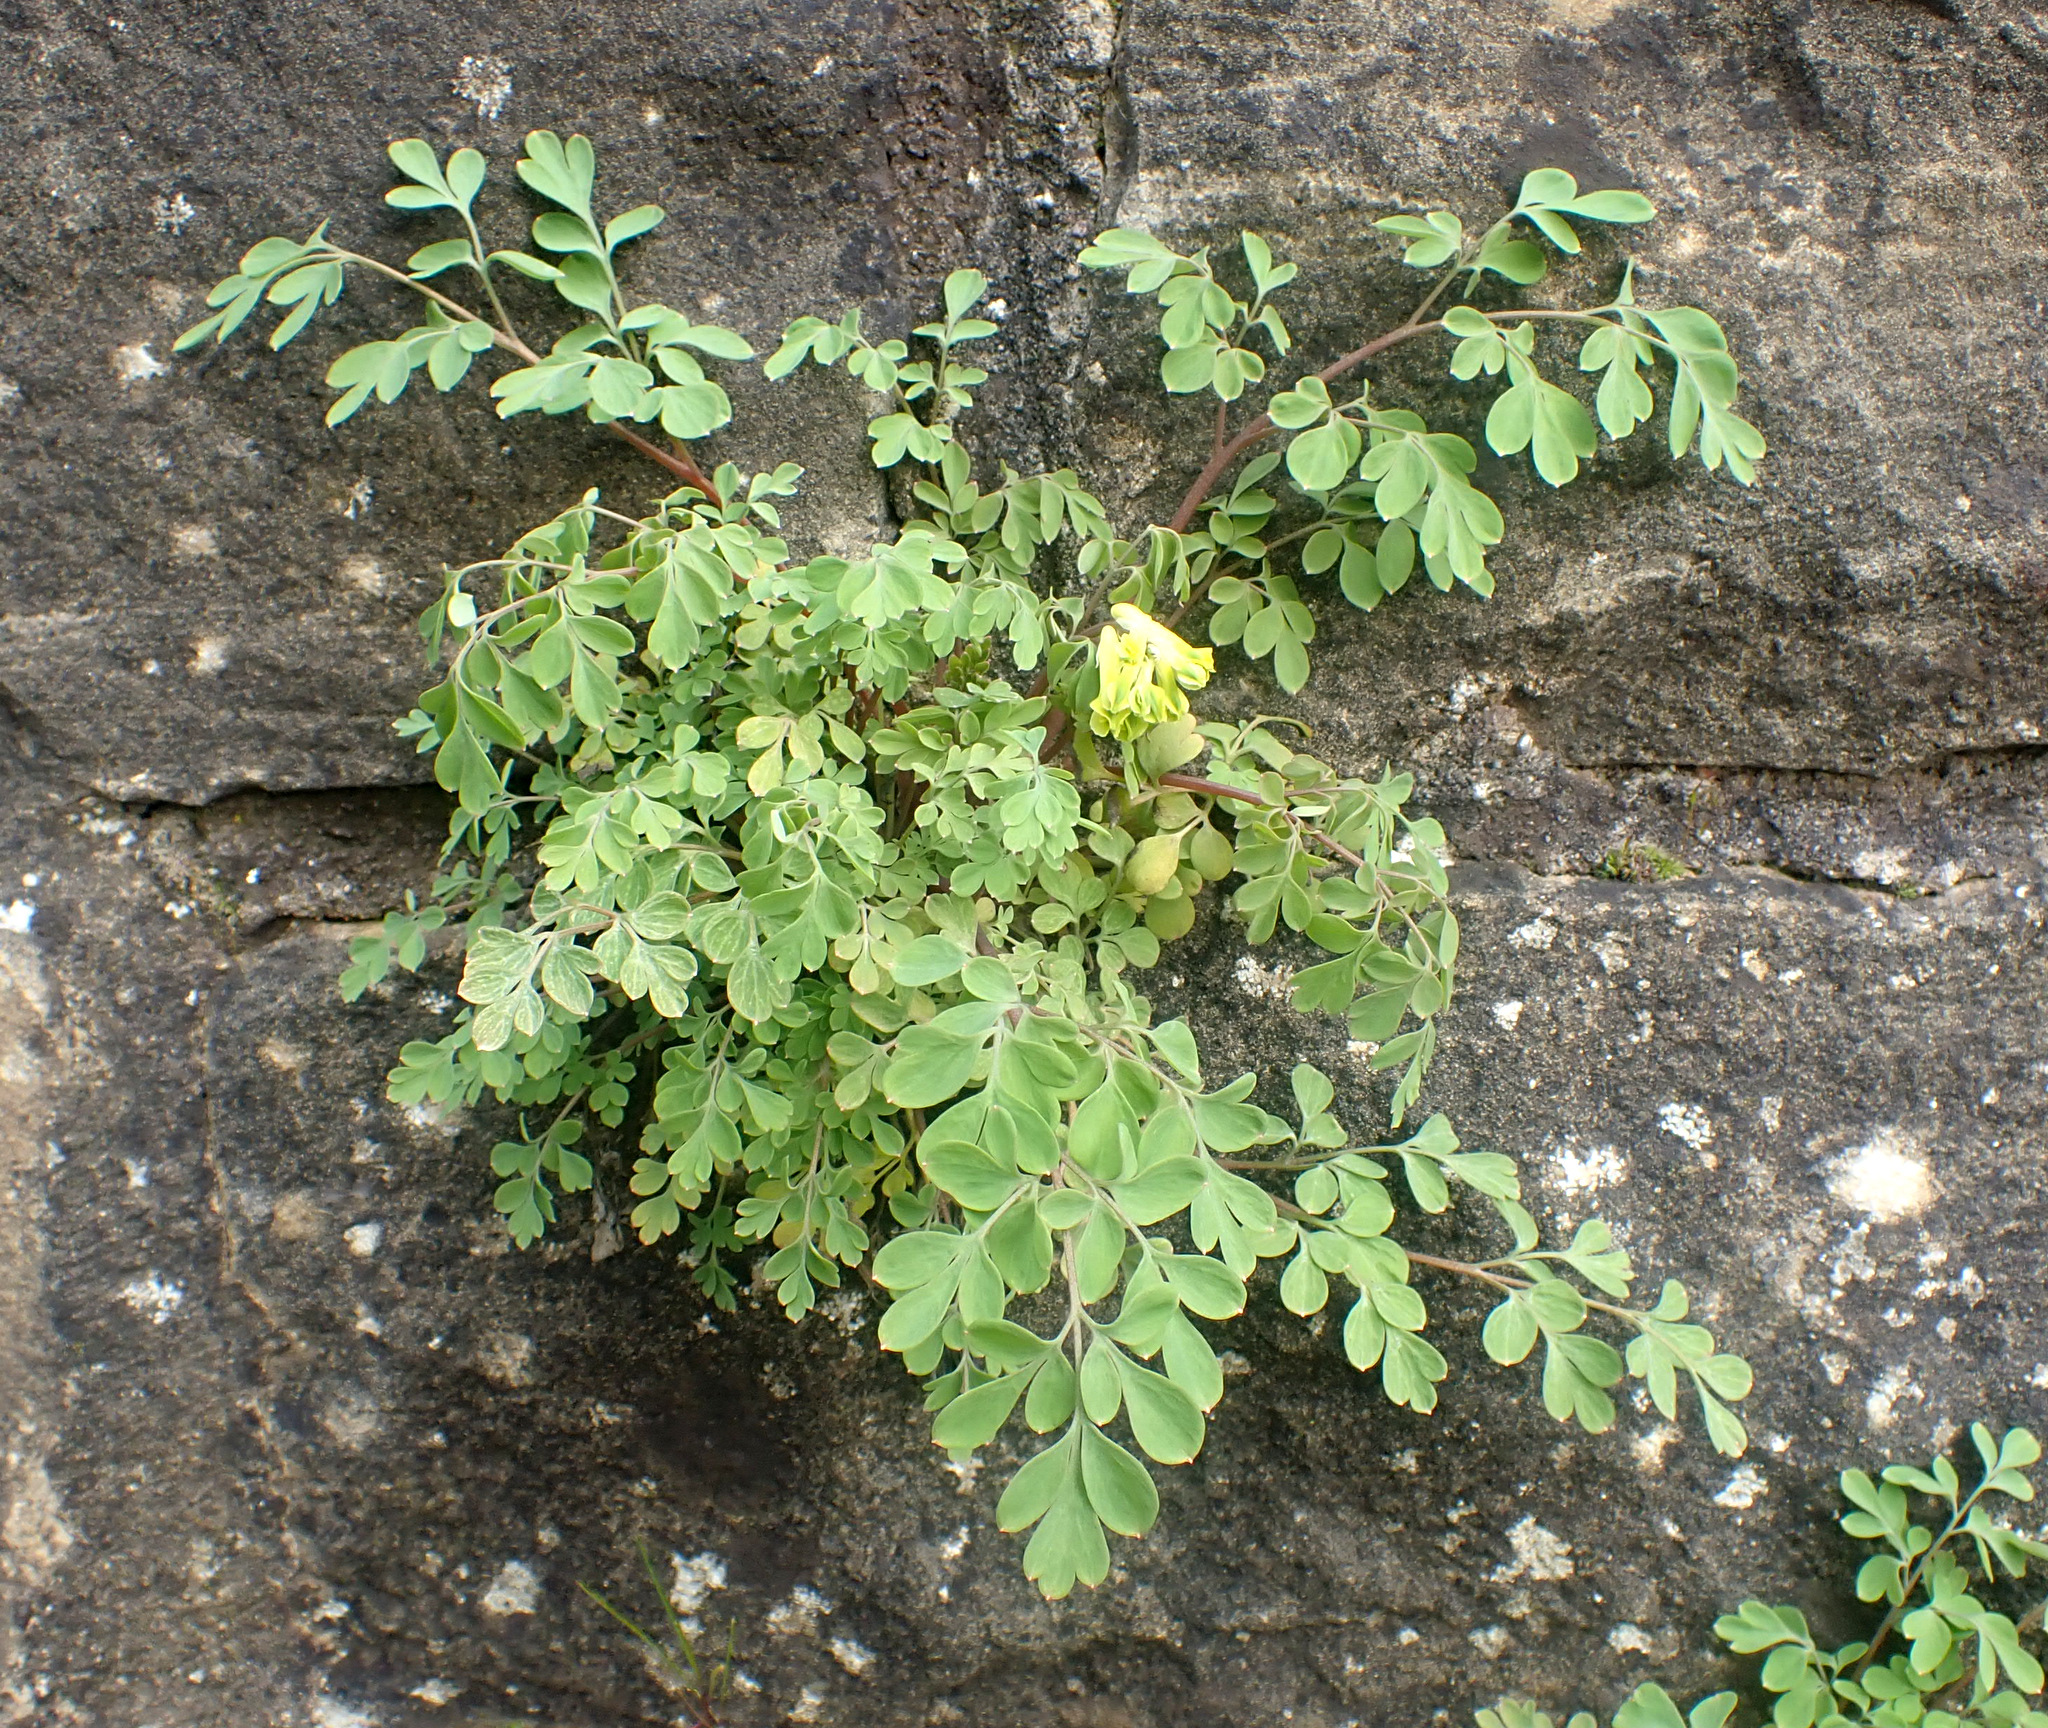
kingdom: Plantae
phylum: Tracheophyta
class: Magnoliopsida
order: Ranunculales
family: Papaveraceae
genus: Pseudofumaria
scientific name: Pseudofumaria lutea
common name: Yellow corydalis
